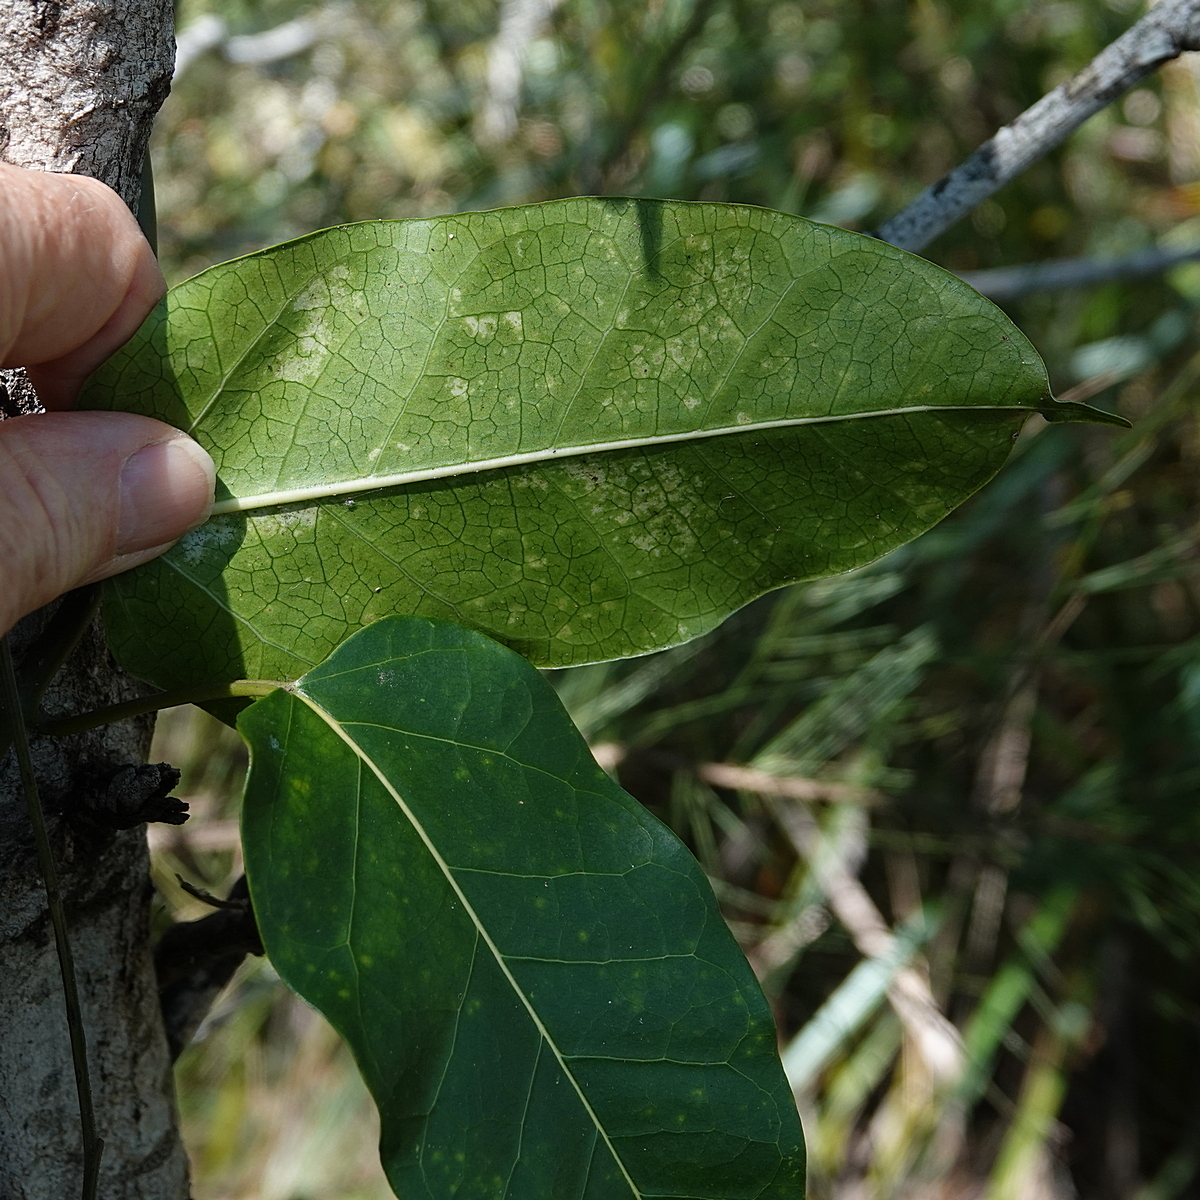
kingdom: Plantae
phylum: Tracheophyta
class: Magnoliopsida
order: Gentianales
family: Apocynaceae
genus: Leichhardtia
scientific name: Leichhardtia rostrata
